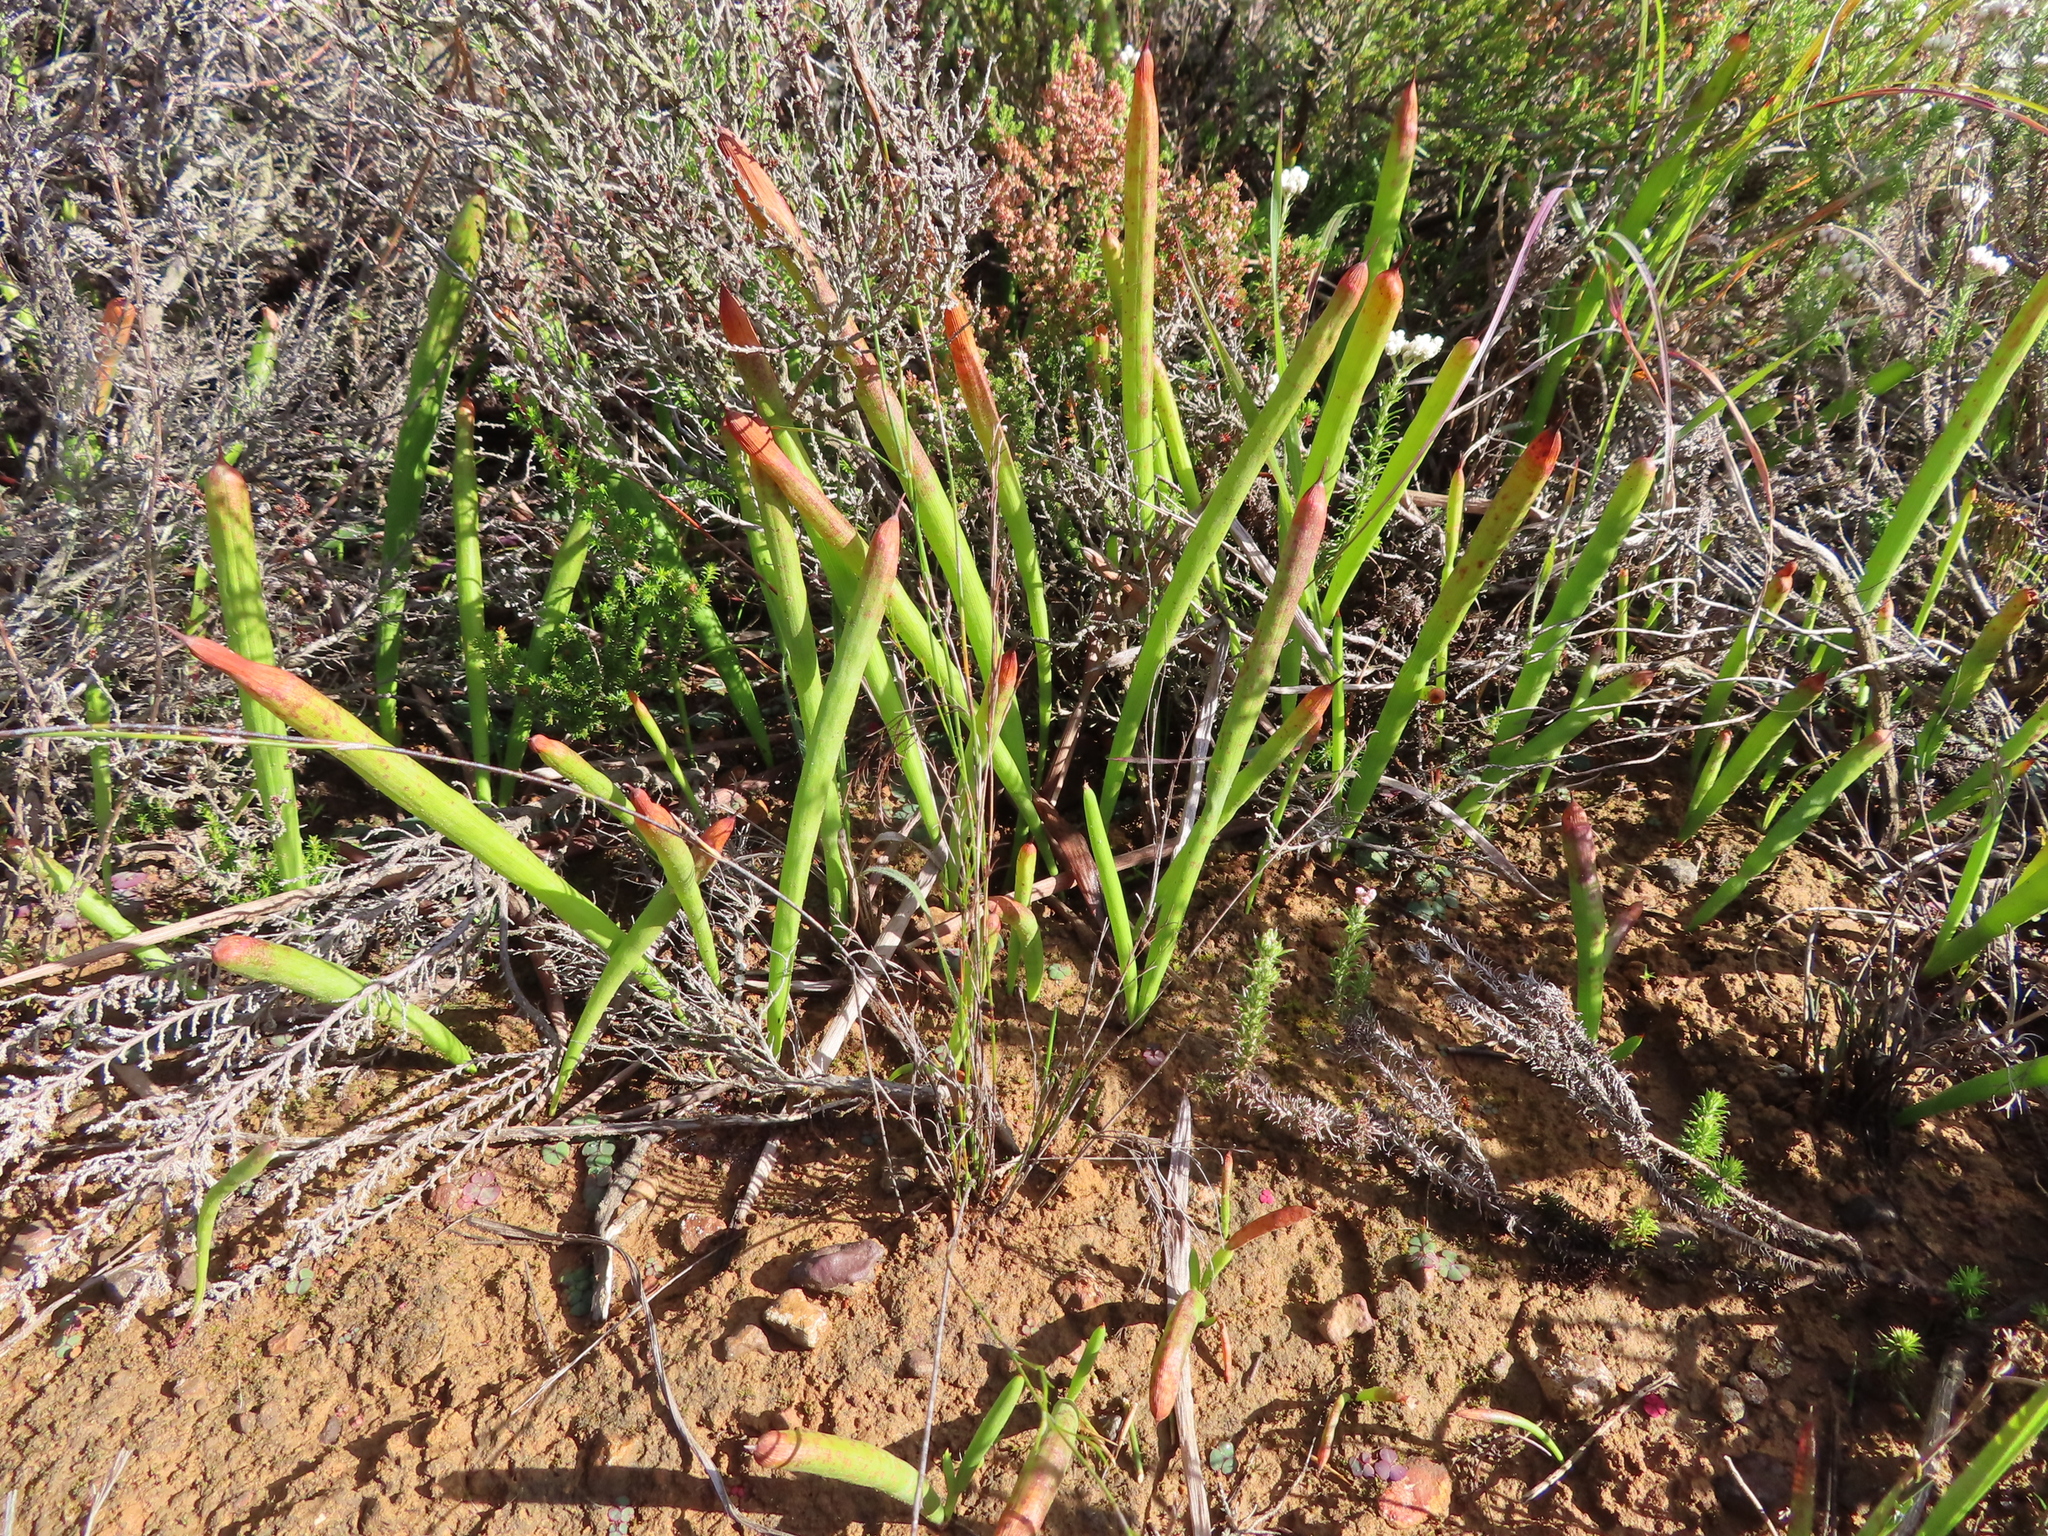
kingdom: Plantae
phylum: Tracheophyta
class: Liliopsida
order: Asparagales
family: Iridaceae
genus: Micranthus
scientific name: Micranthus tubulosus
